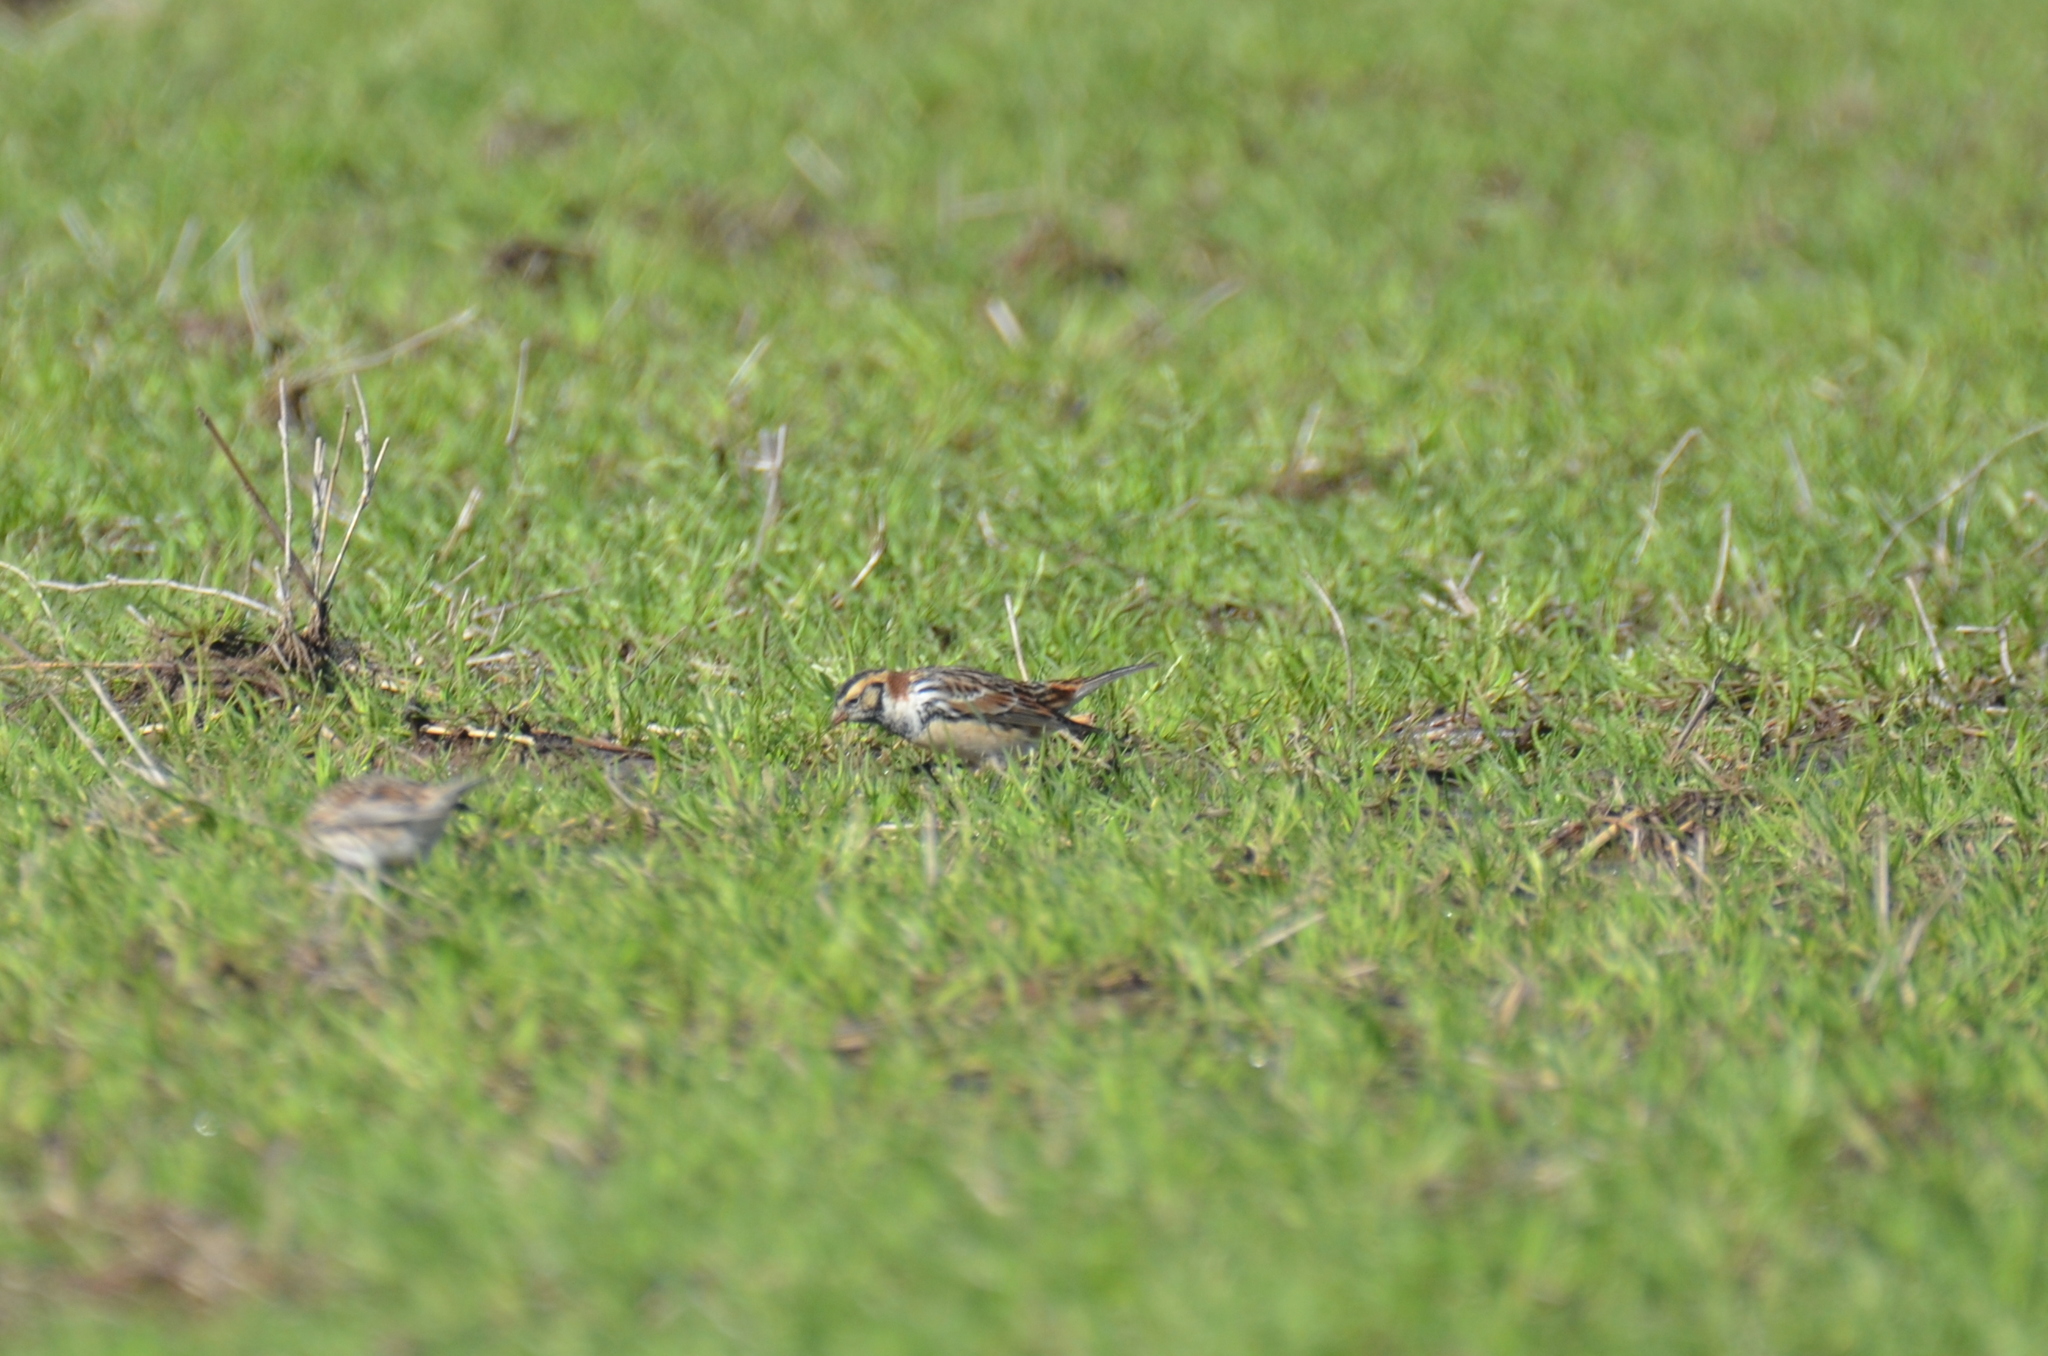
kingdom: Animalia
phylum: Chordata
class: Aves
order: Passeriformes
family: Calcariidae
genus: Calcarius
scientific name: Calcarius lapponicus
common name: Lapland longspur
